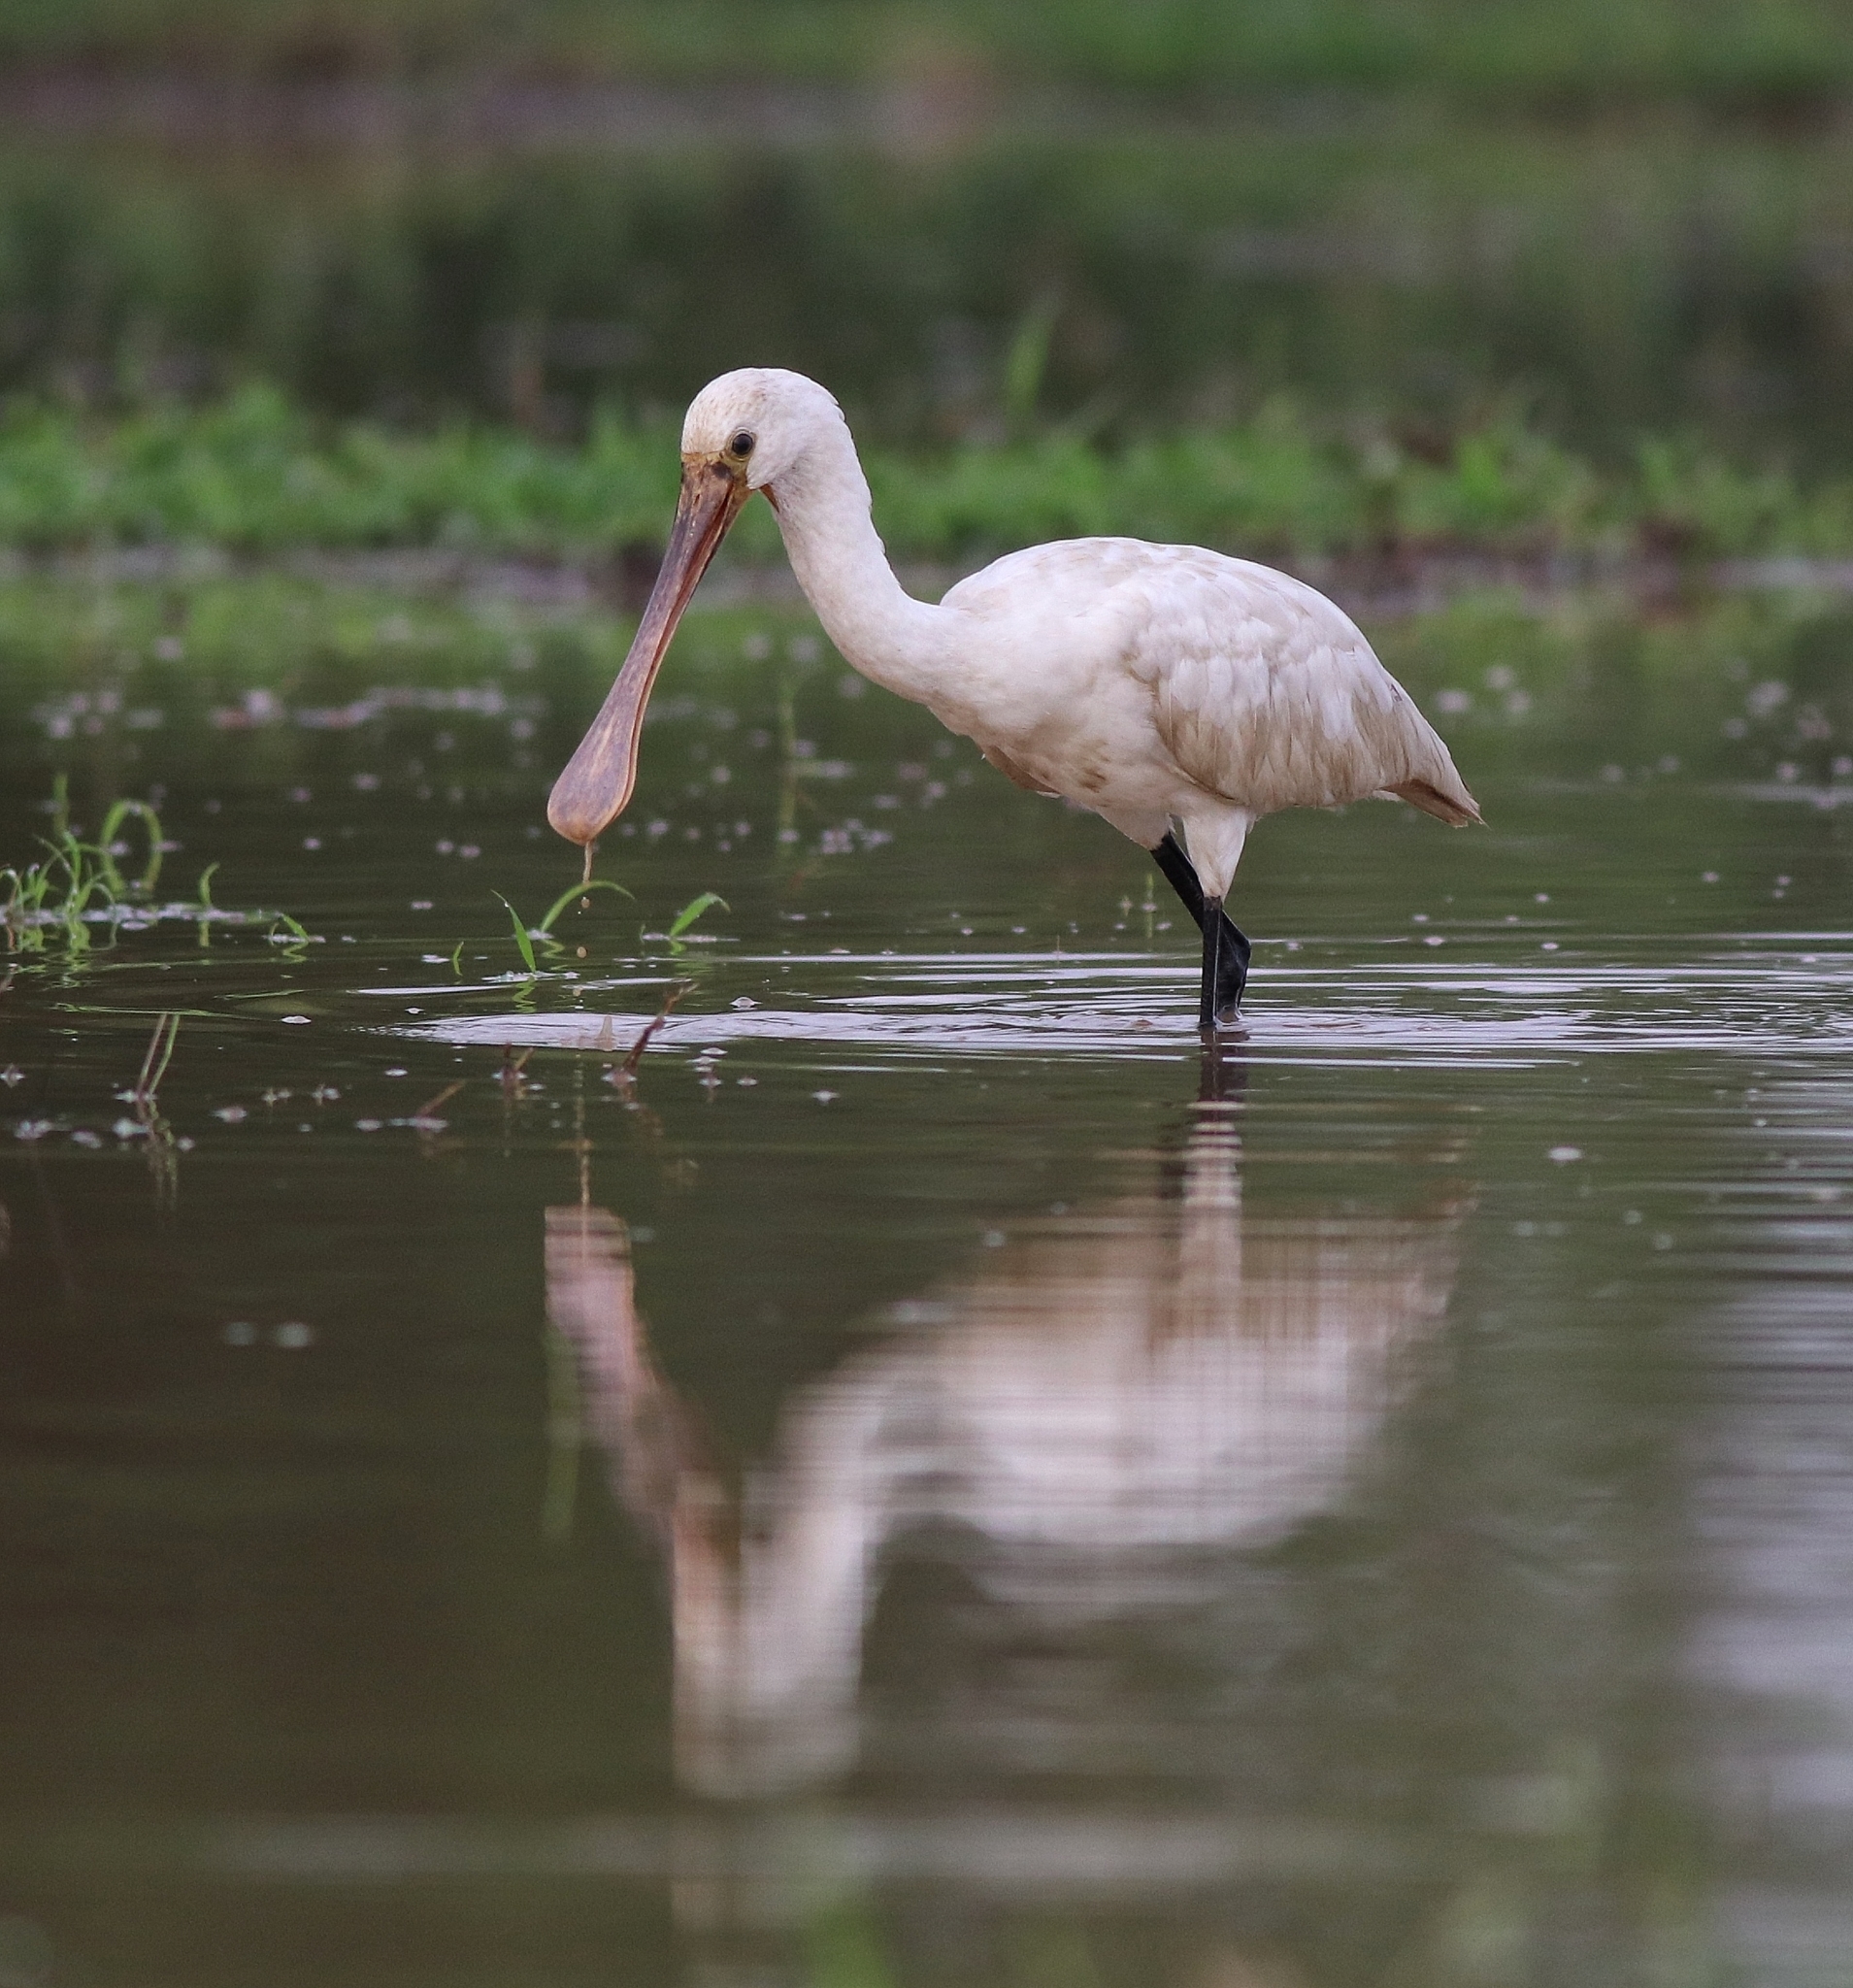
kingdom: Animalia
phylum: Chordata
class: Aves
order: Pelecaniformes
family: Threskiornithidae
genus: Platalea
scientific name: Platalea leucorodia
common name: Eurasian spoonbill
